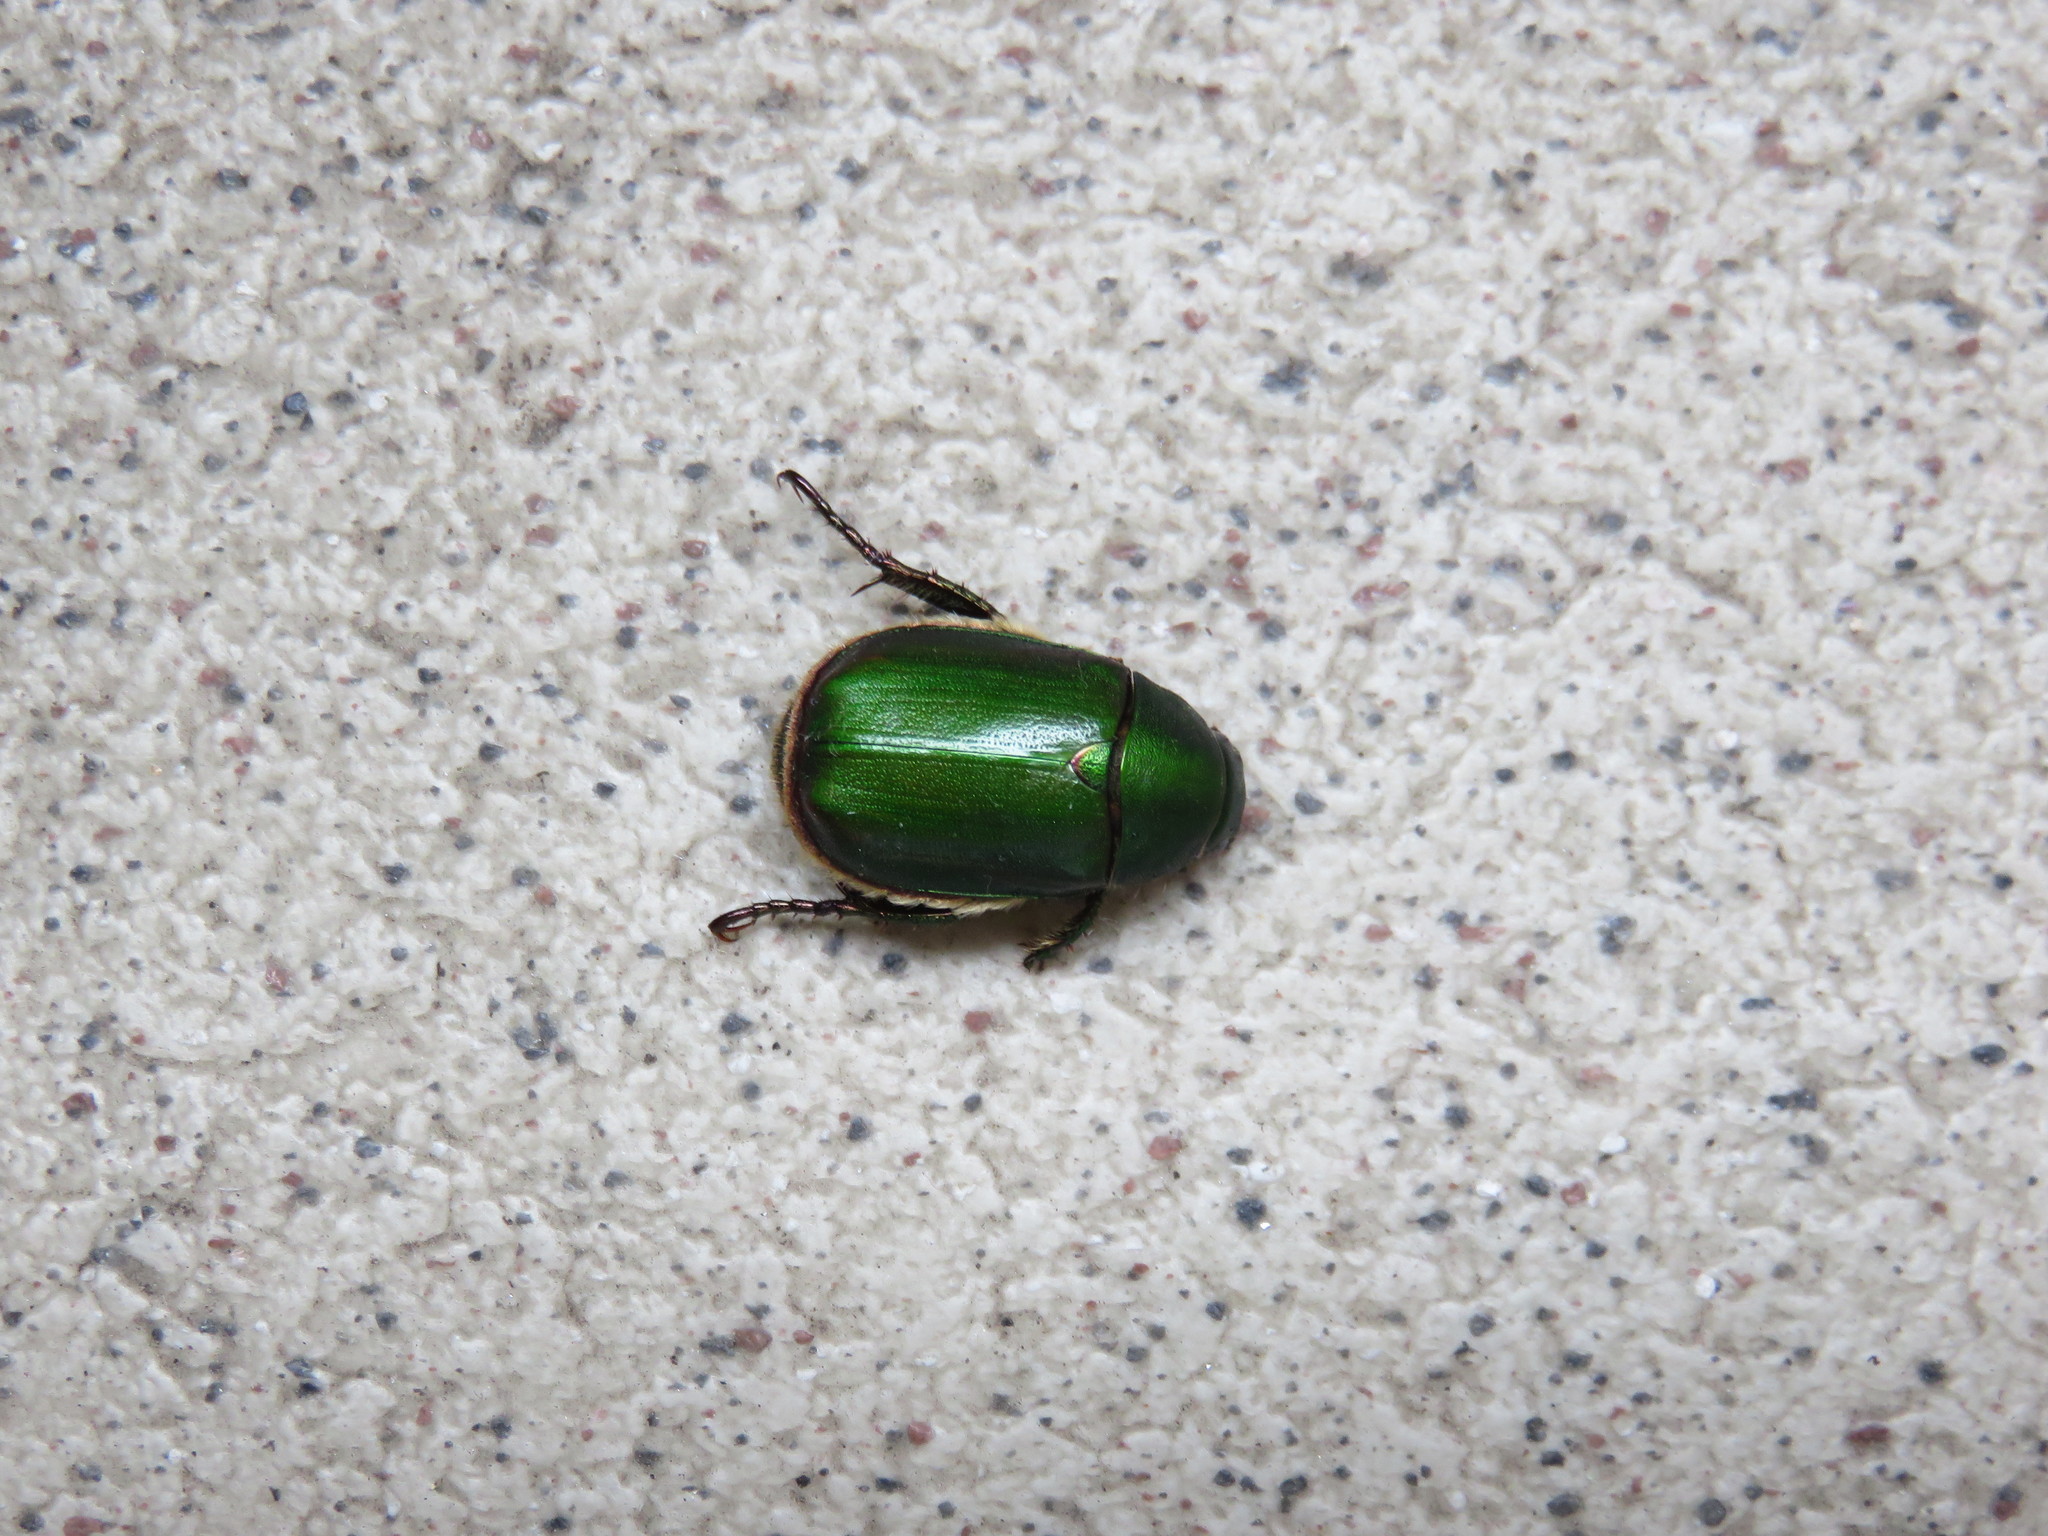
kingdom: Animalia
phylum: Arthropoda
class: Insecta
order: Coleoptera
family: Scarabaeidae
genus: Anomala
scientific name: Anomala albopilosa
